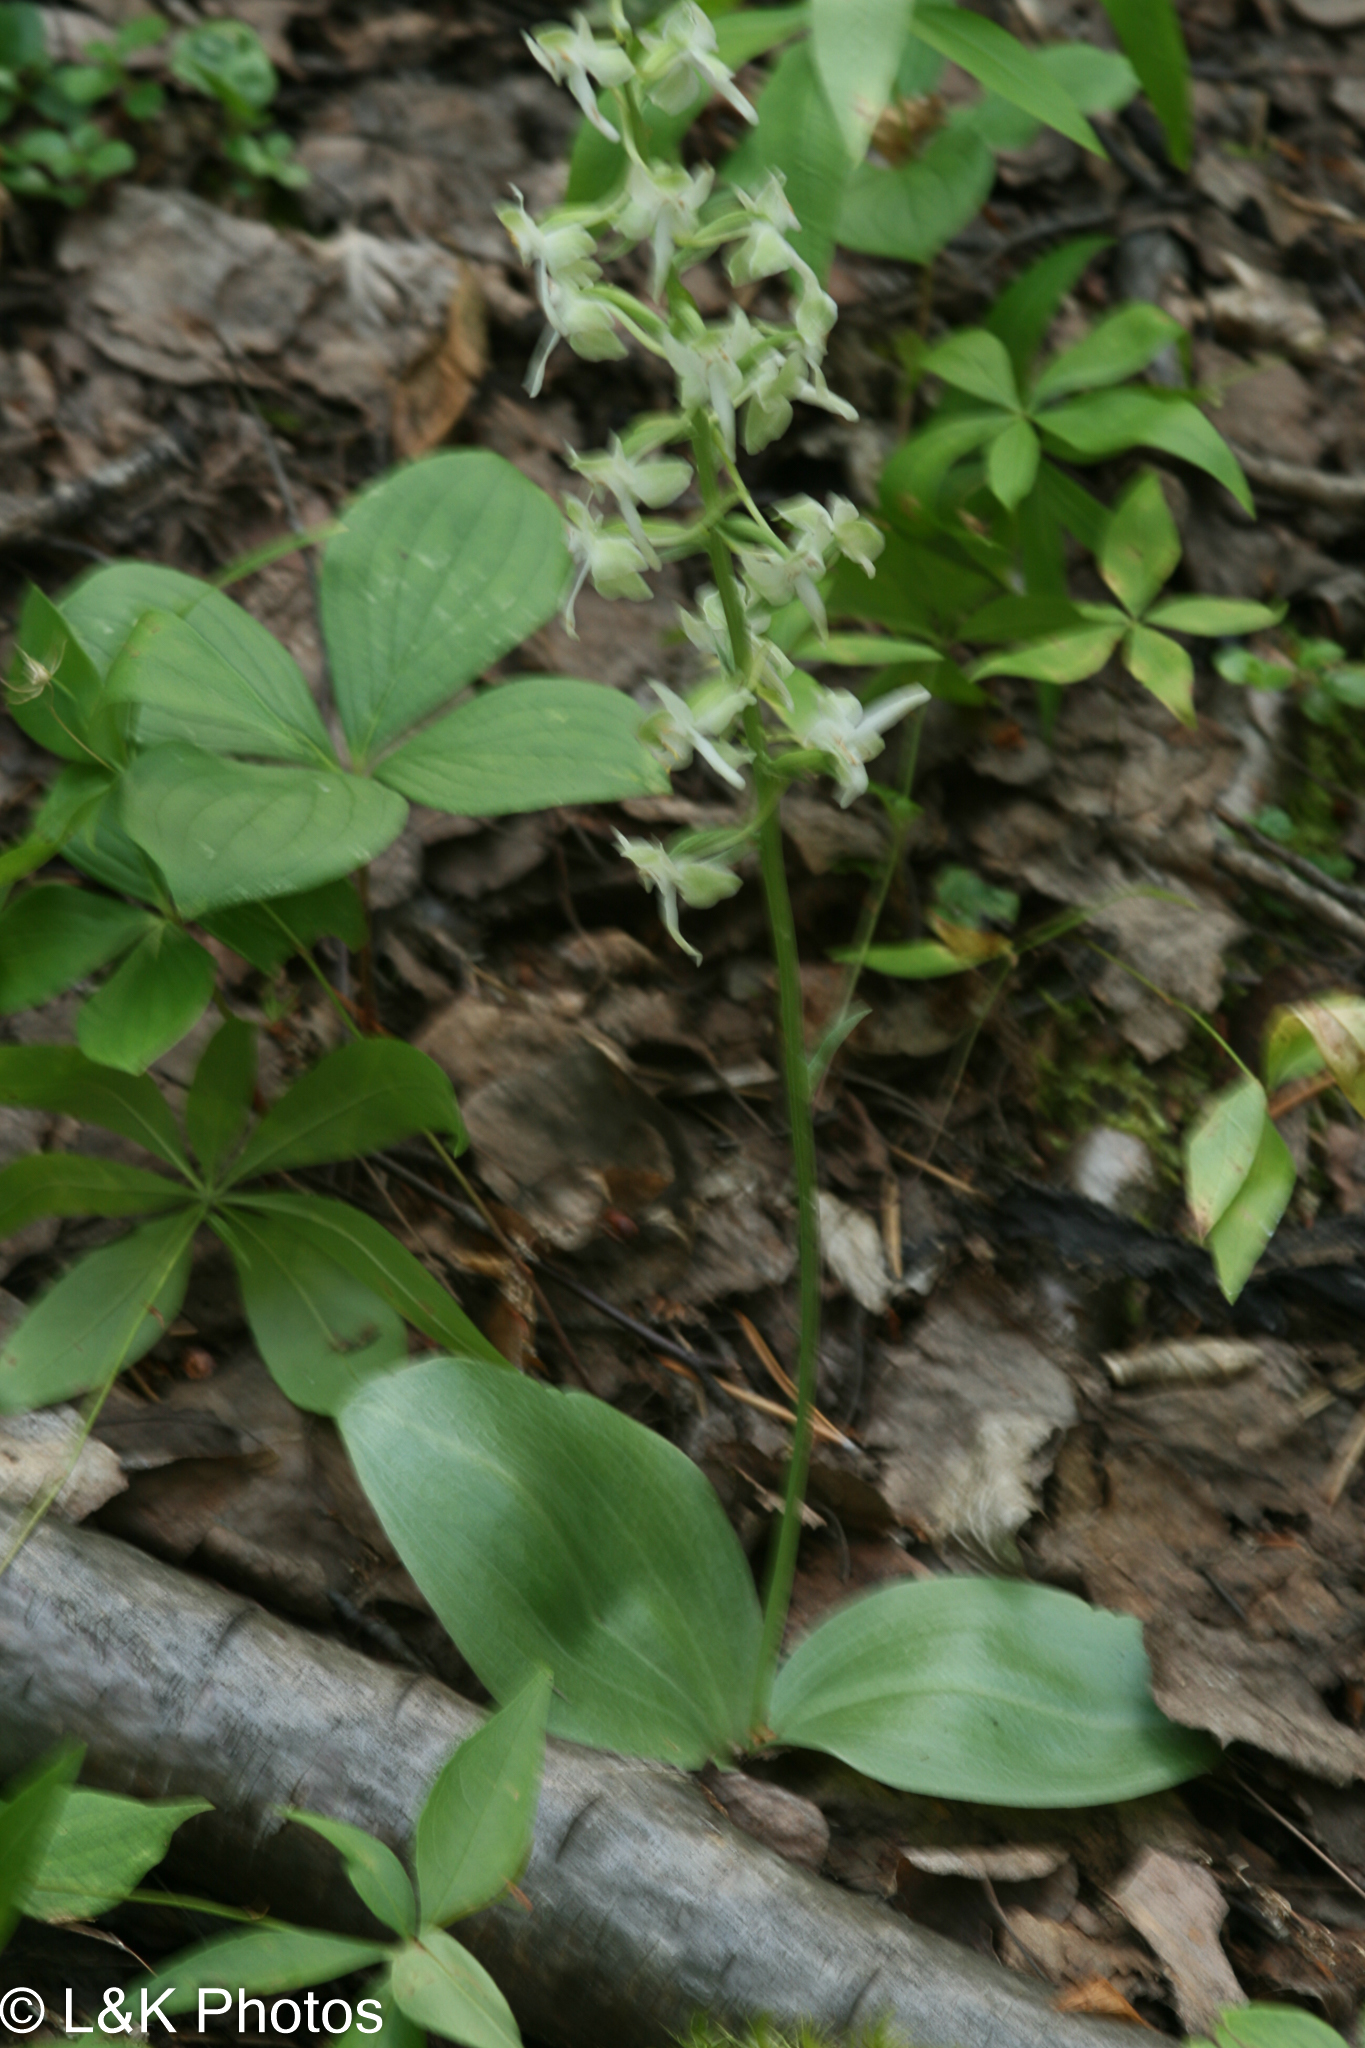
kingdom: Plantae
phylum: Tracheophyta
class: Liliopsida
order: Asparagales
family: Orchidaceae
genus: Platanthera
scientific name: Platanthera orbiculata
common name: Large round-leaved orchid
